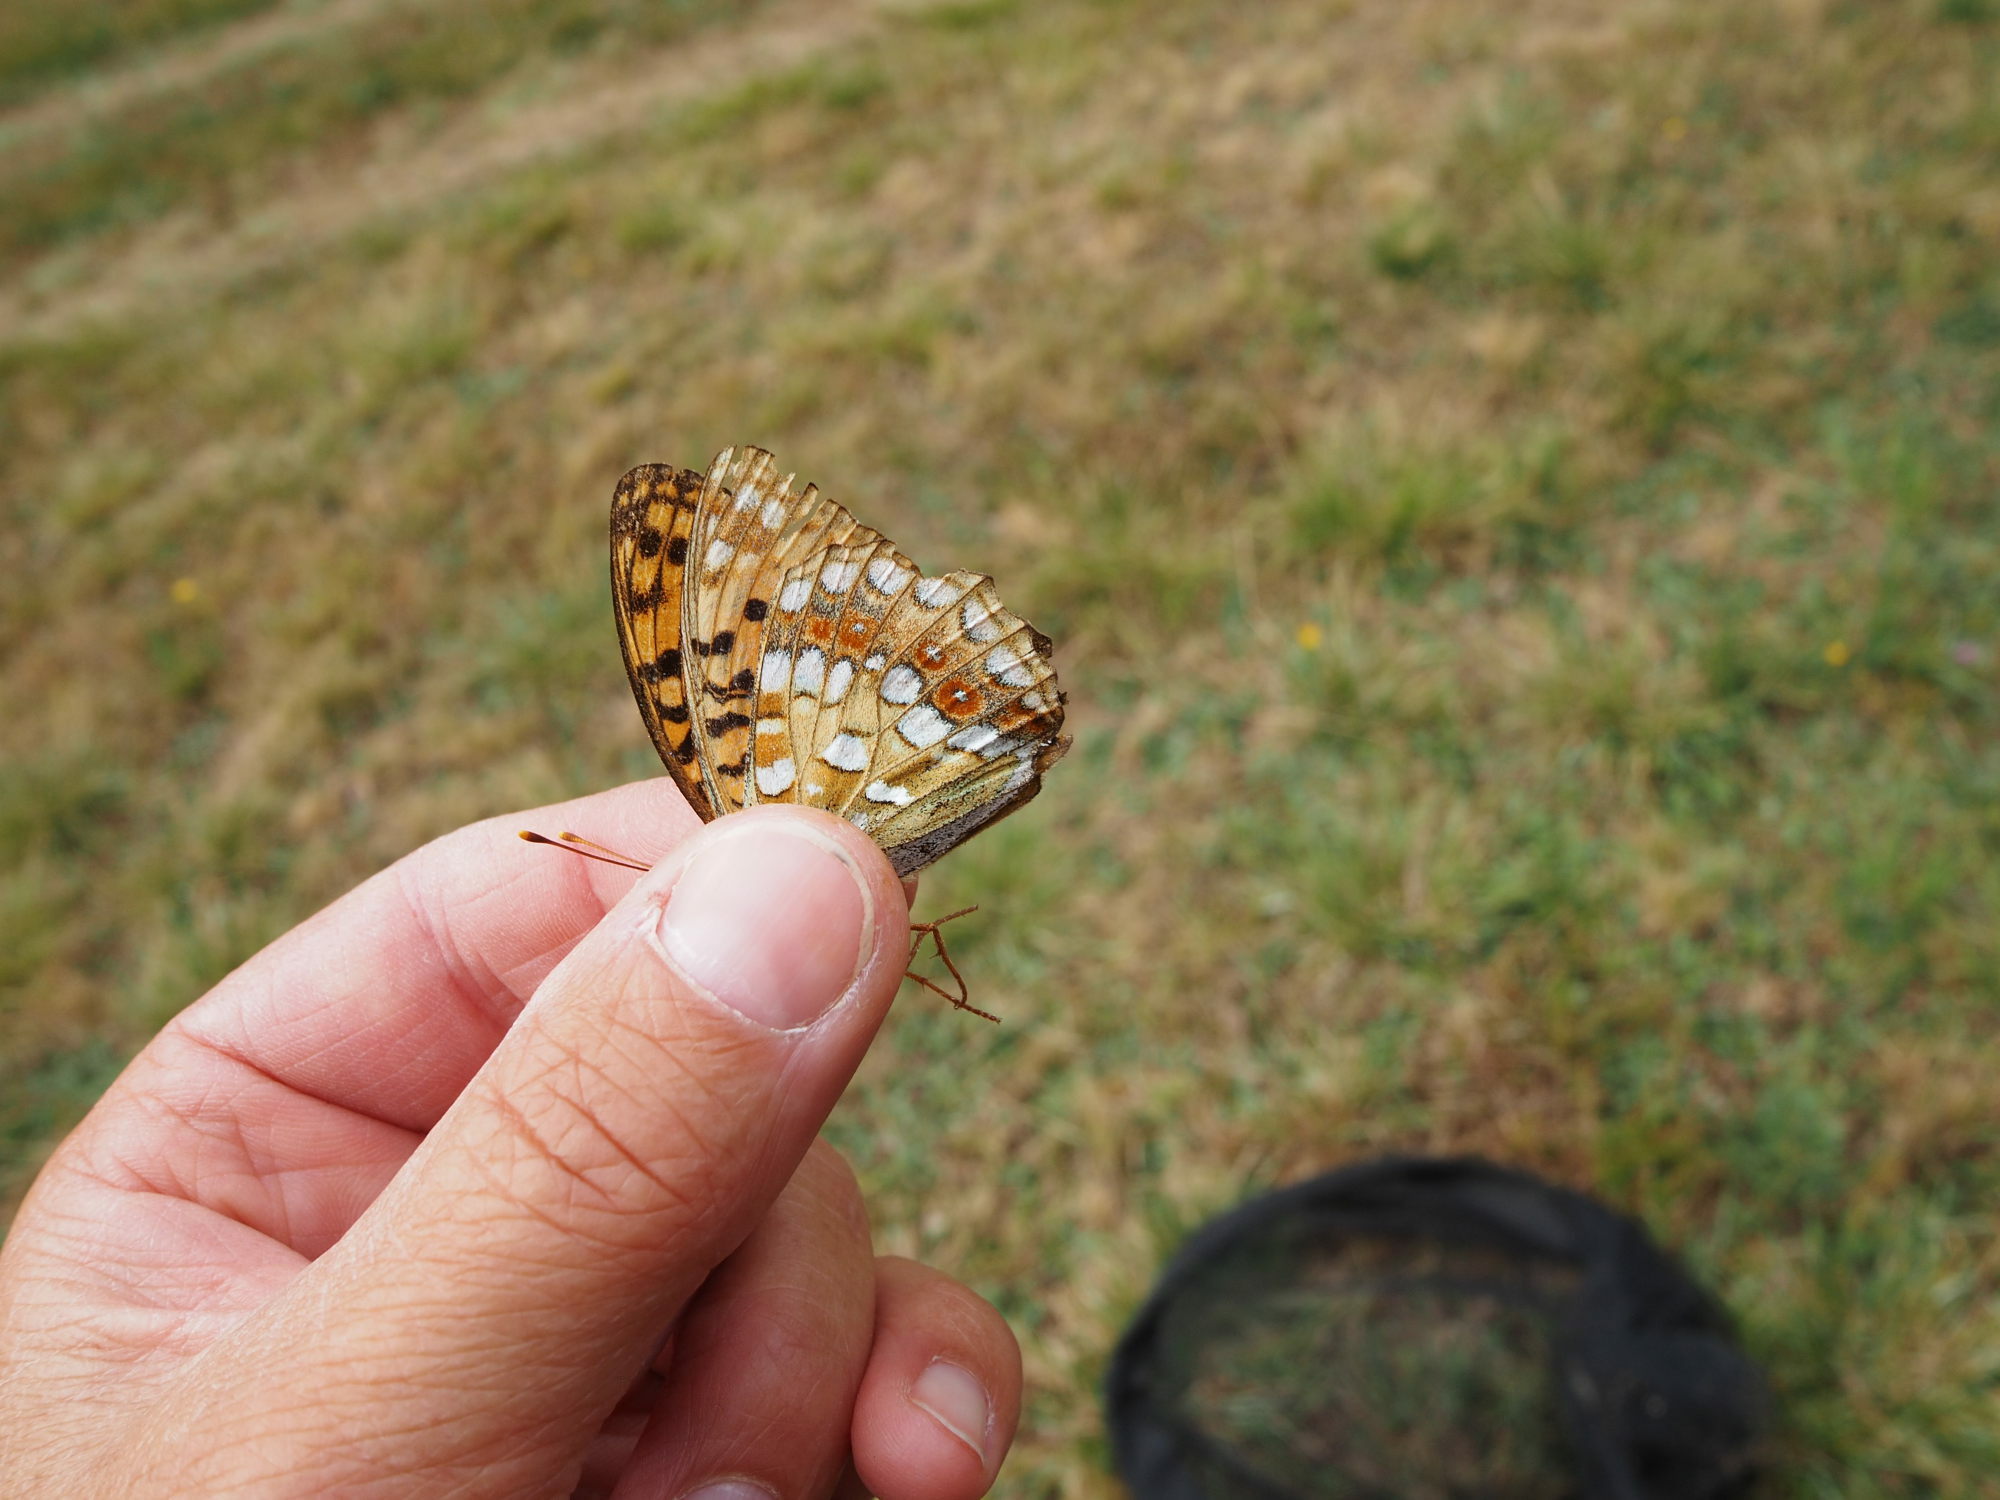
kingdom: Animalia
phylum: Arthropoda
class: Insecta
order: Lepidoptera
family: Nymphalidae
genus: Fabriciana
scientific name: Fabriciana adippe
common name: High brown fritillary
